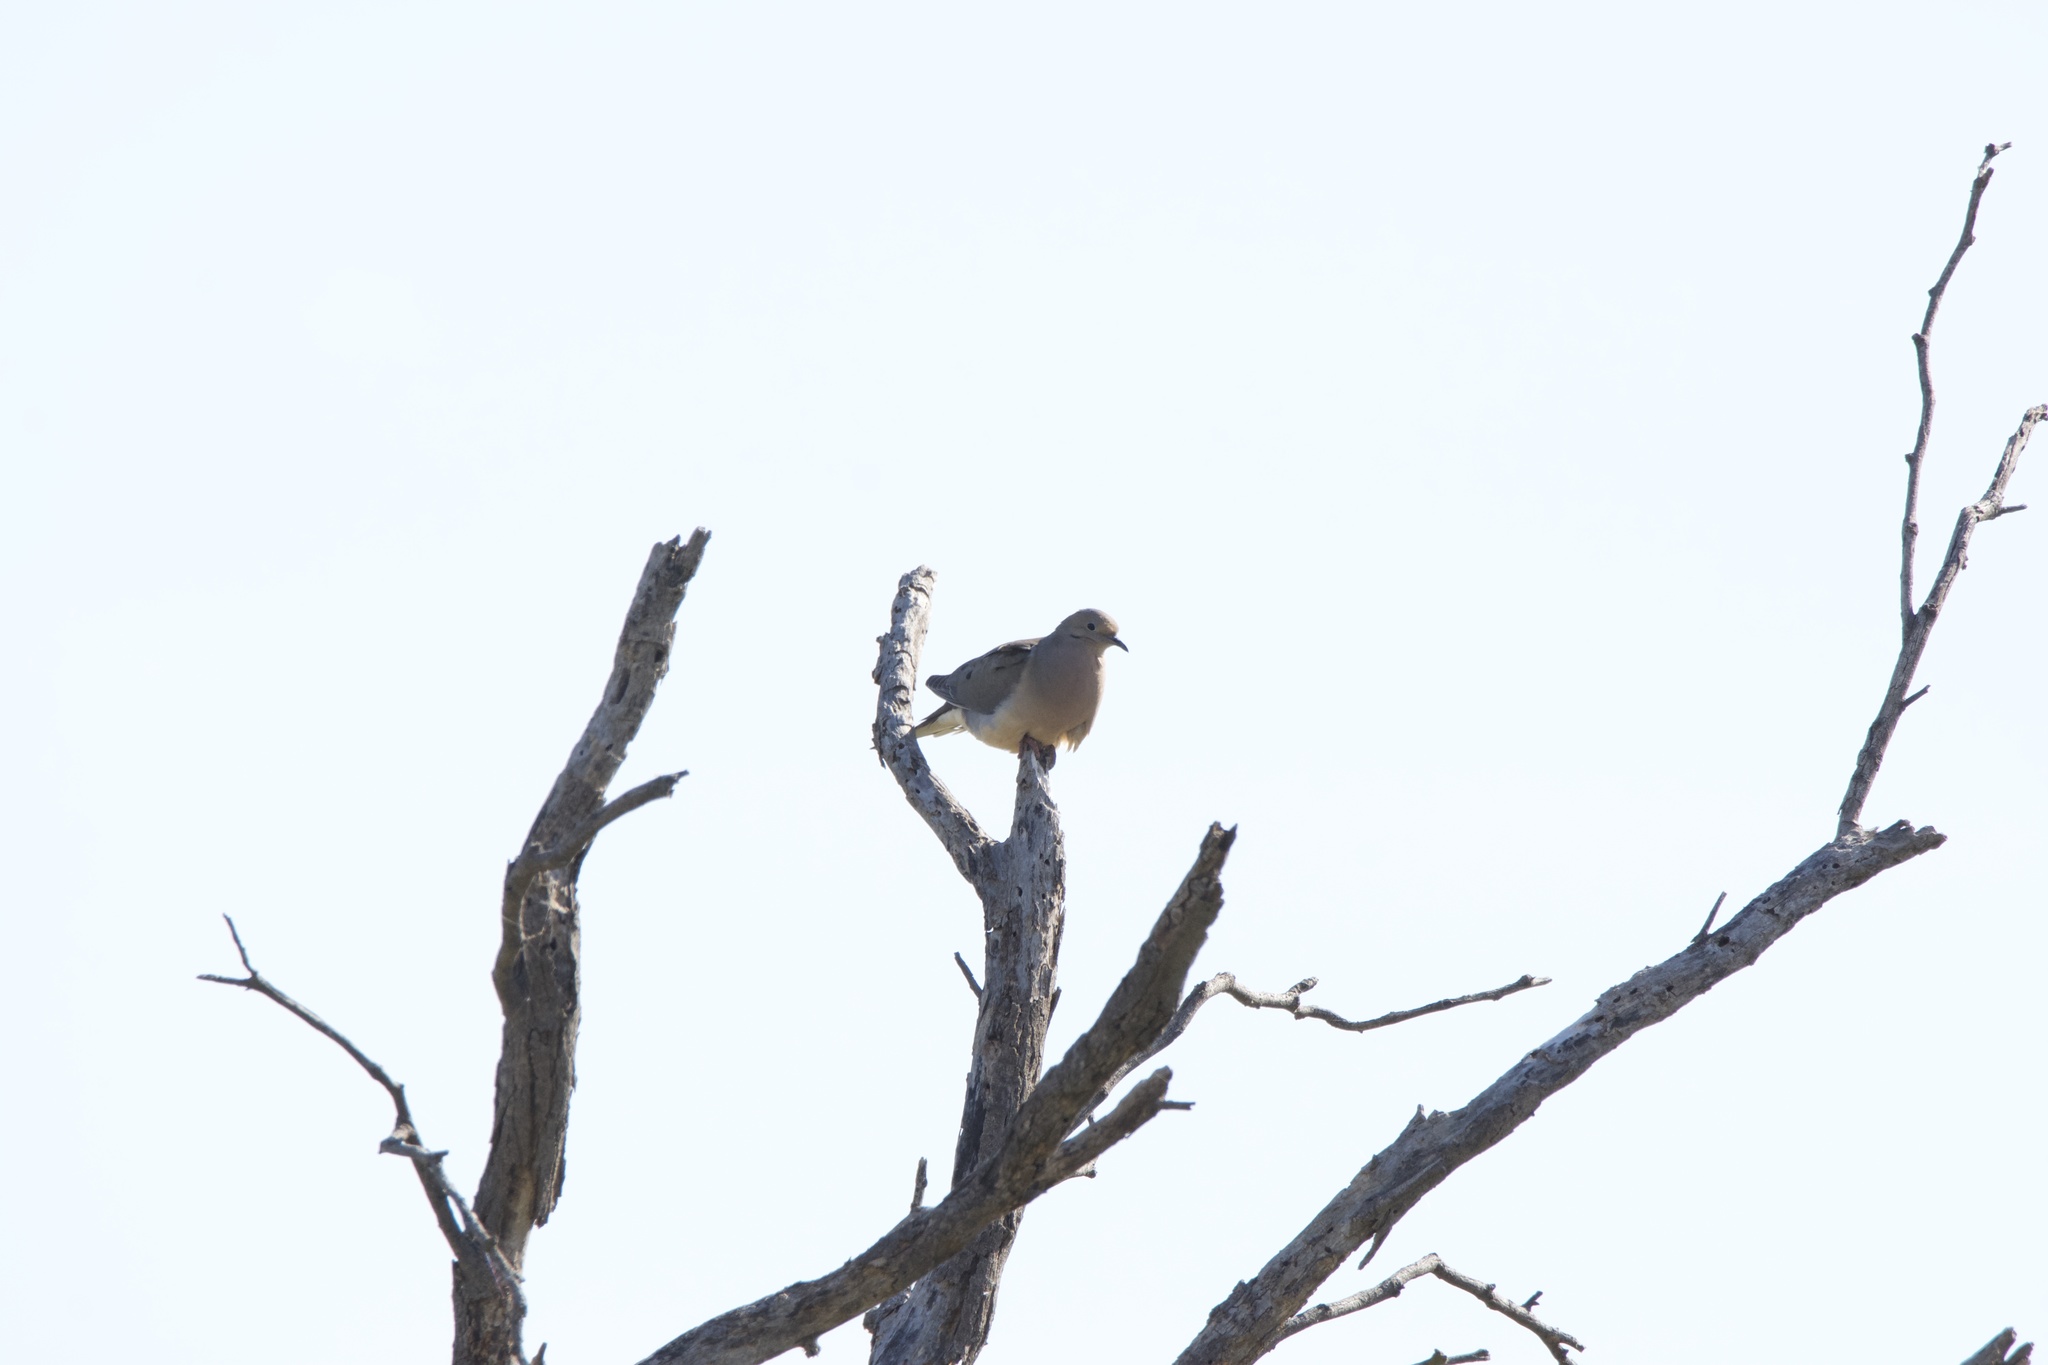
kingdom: Animalia
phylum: Chordata
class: Aves
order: Columbiformes
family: Columbidae
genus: Zenaida
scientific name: Zenaida macroura
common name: Mourning dove
